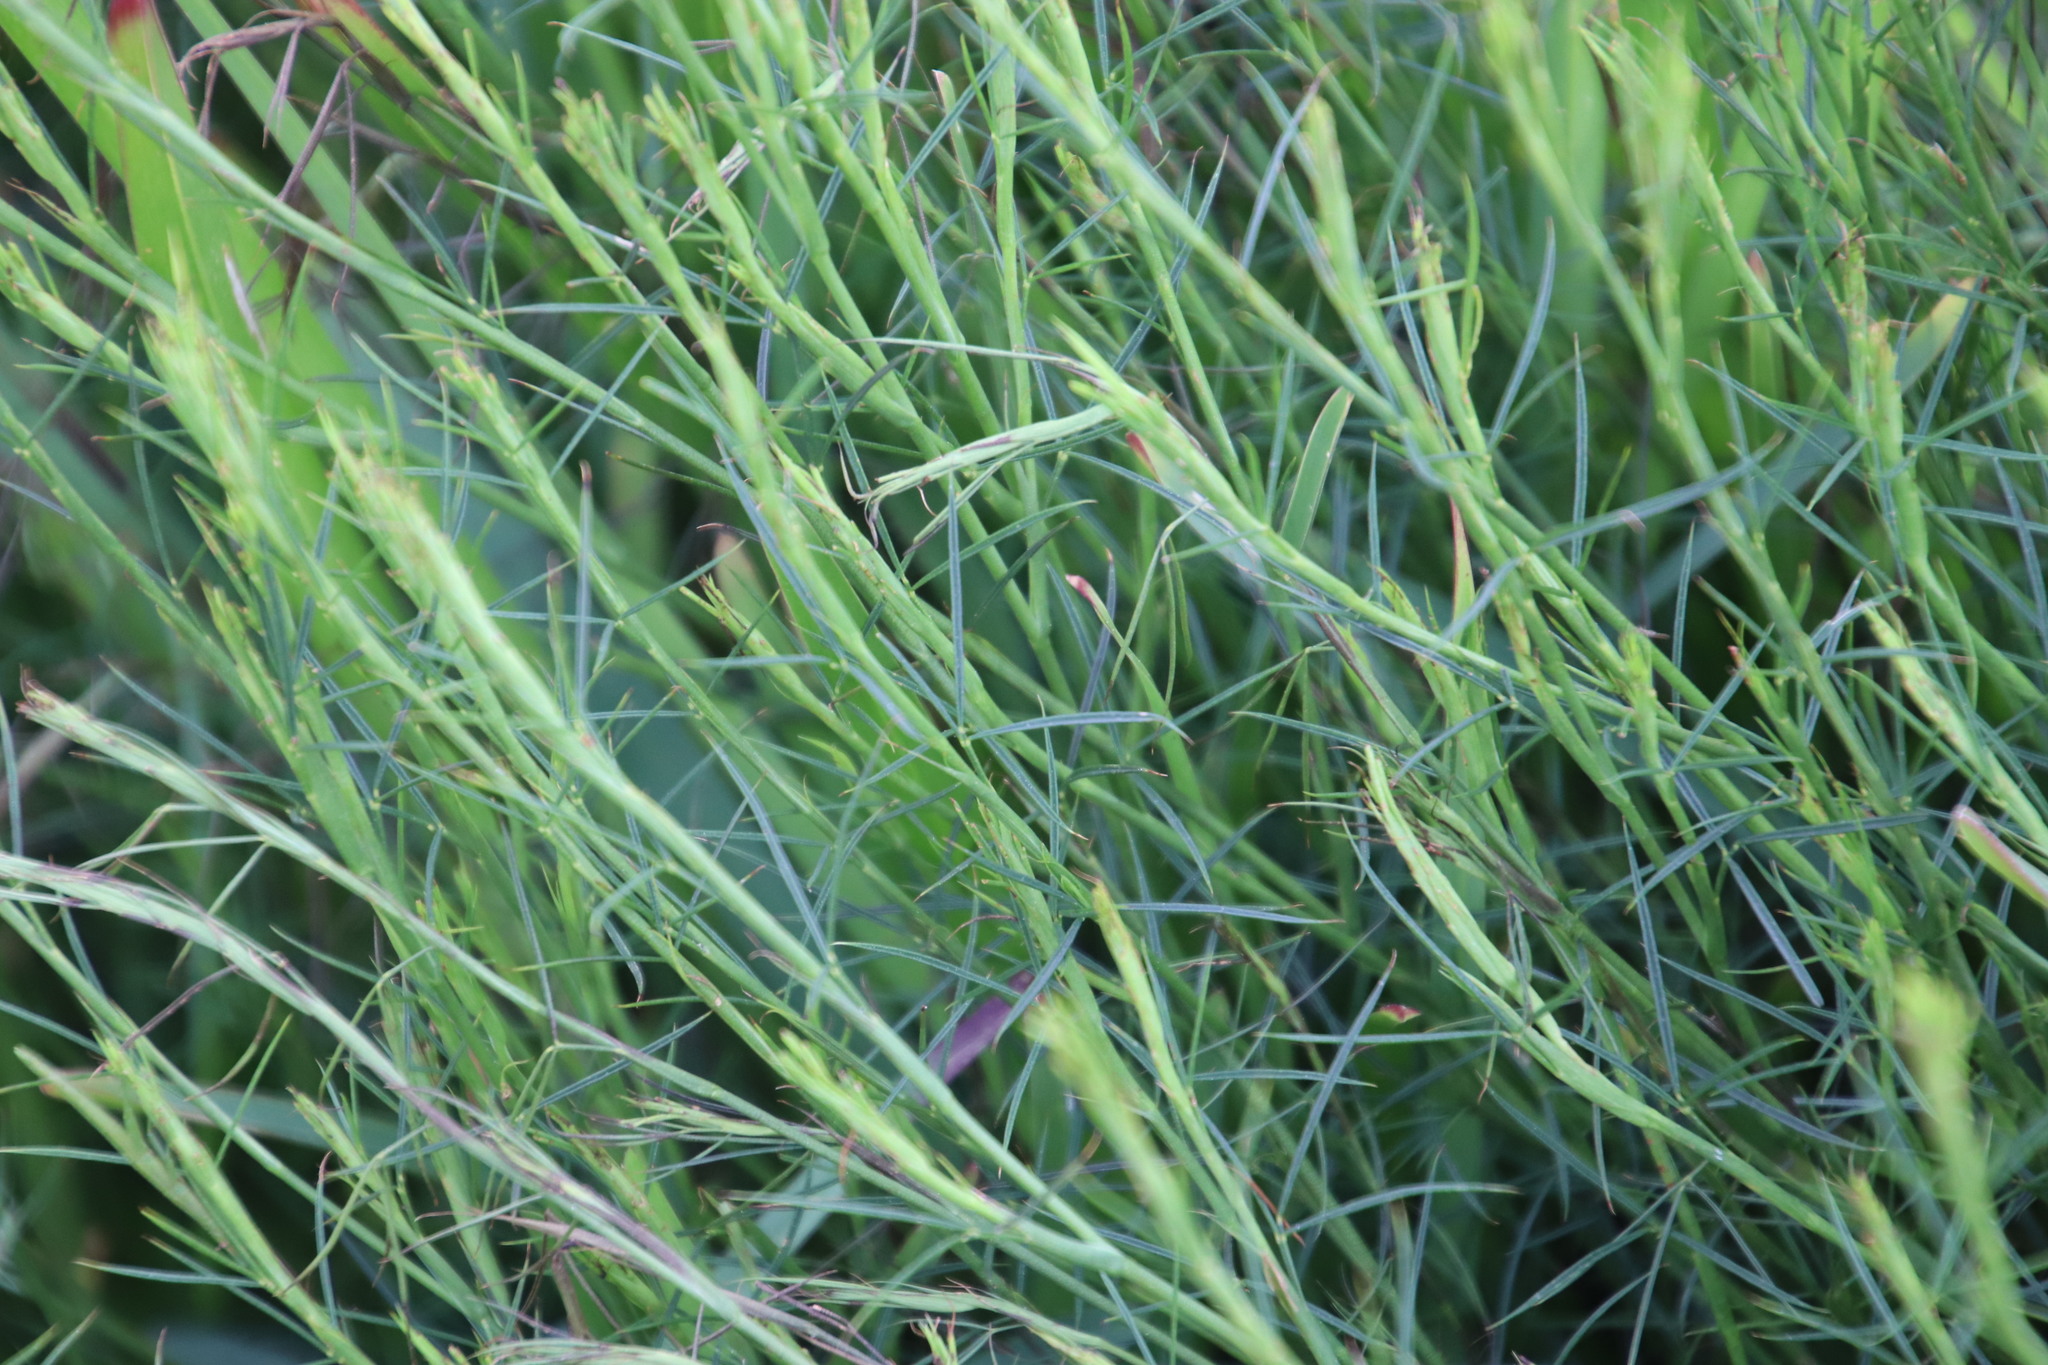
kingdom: Plantae
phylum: Tracheophyta
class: Magnoliopsida
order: Fabales
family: Fabaceae
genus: Psoralea
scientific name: Psoralea fascicularis
